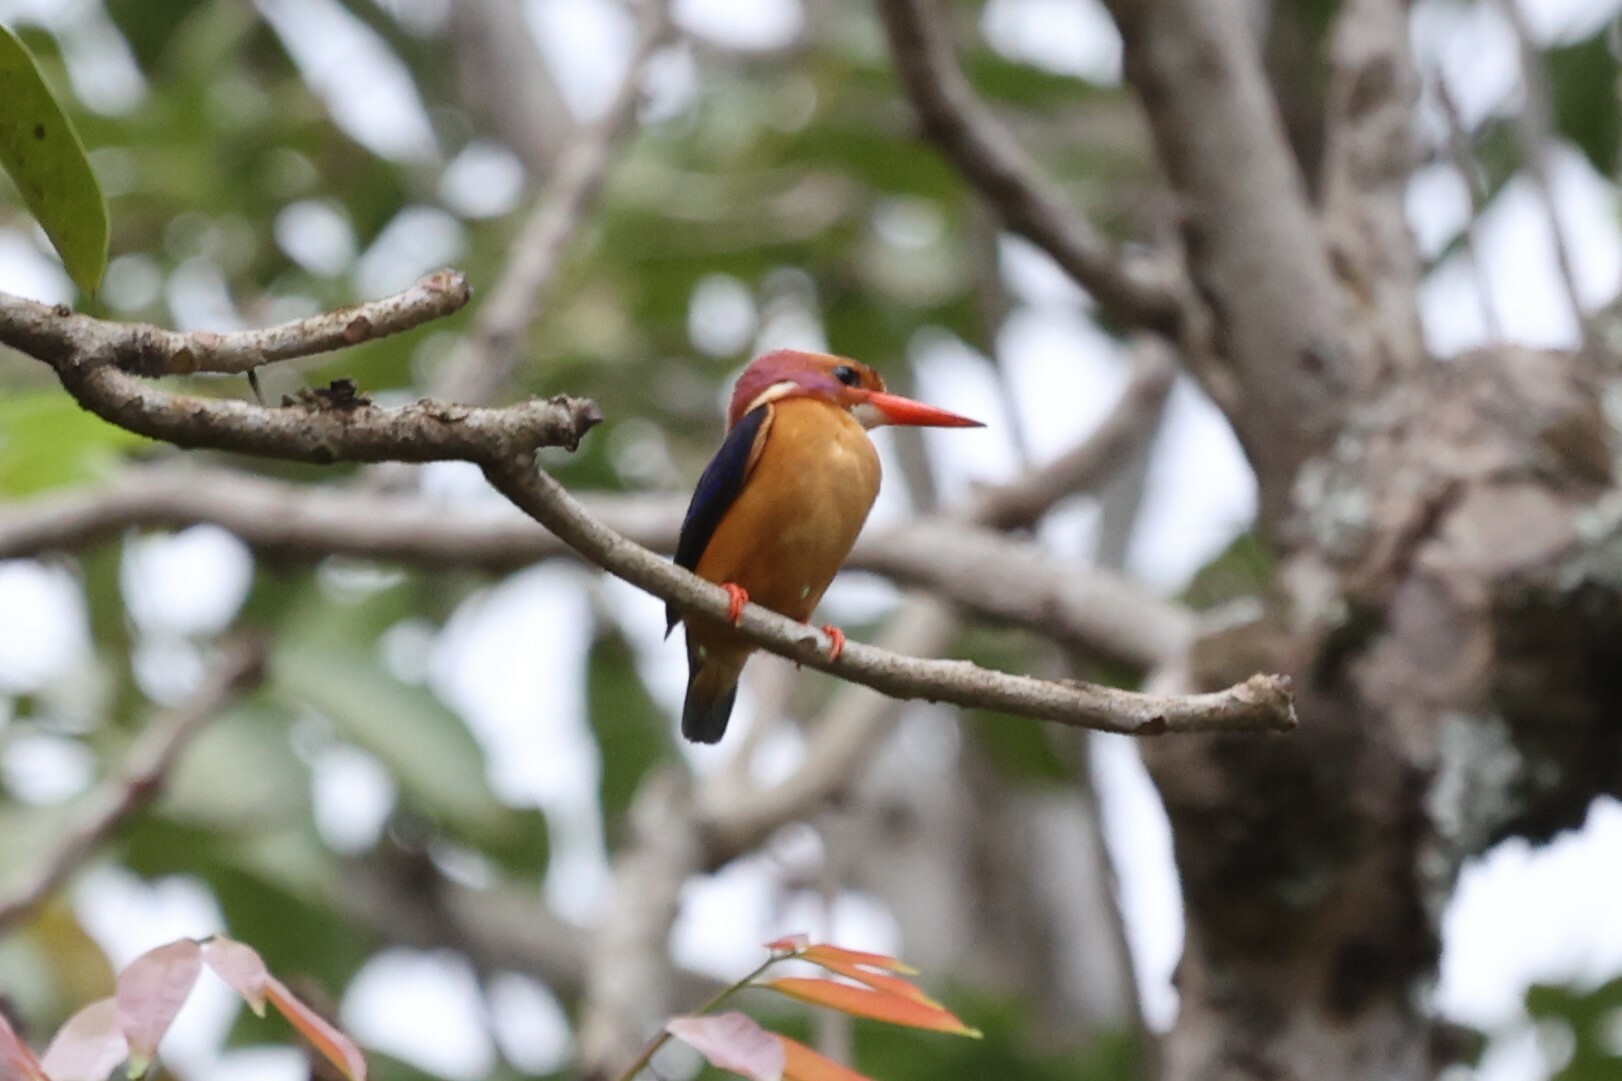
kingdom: Animalia
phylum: Chordata
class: Aves
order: Coraciiformes
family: Alcedinidae
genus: Ispidina
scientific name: Ispidina picta
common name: African pygmy-kingfisher
